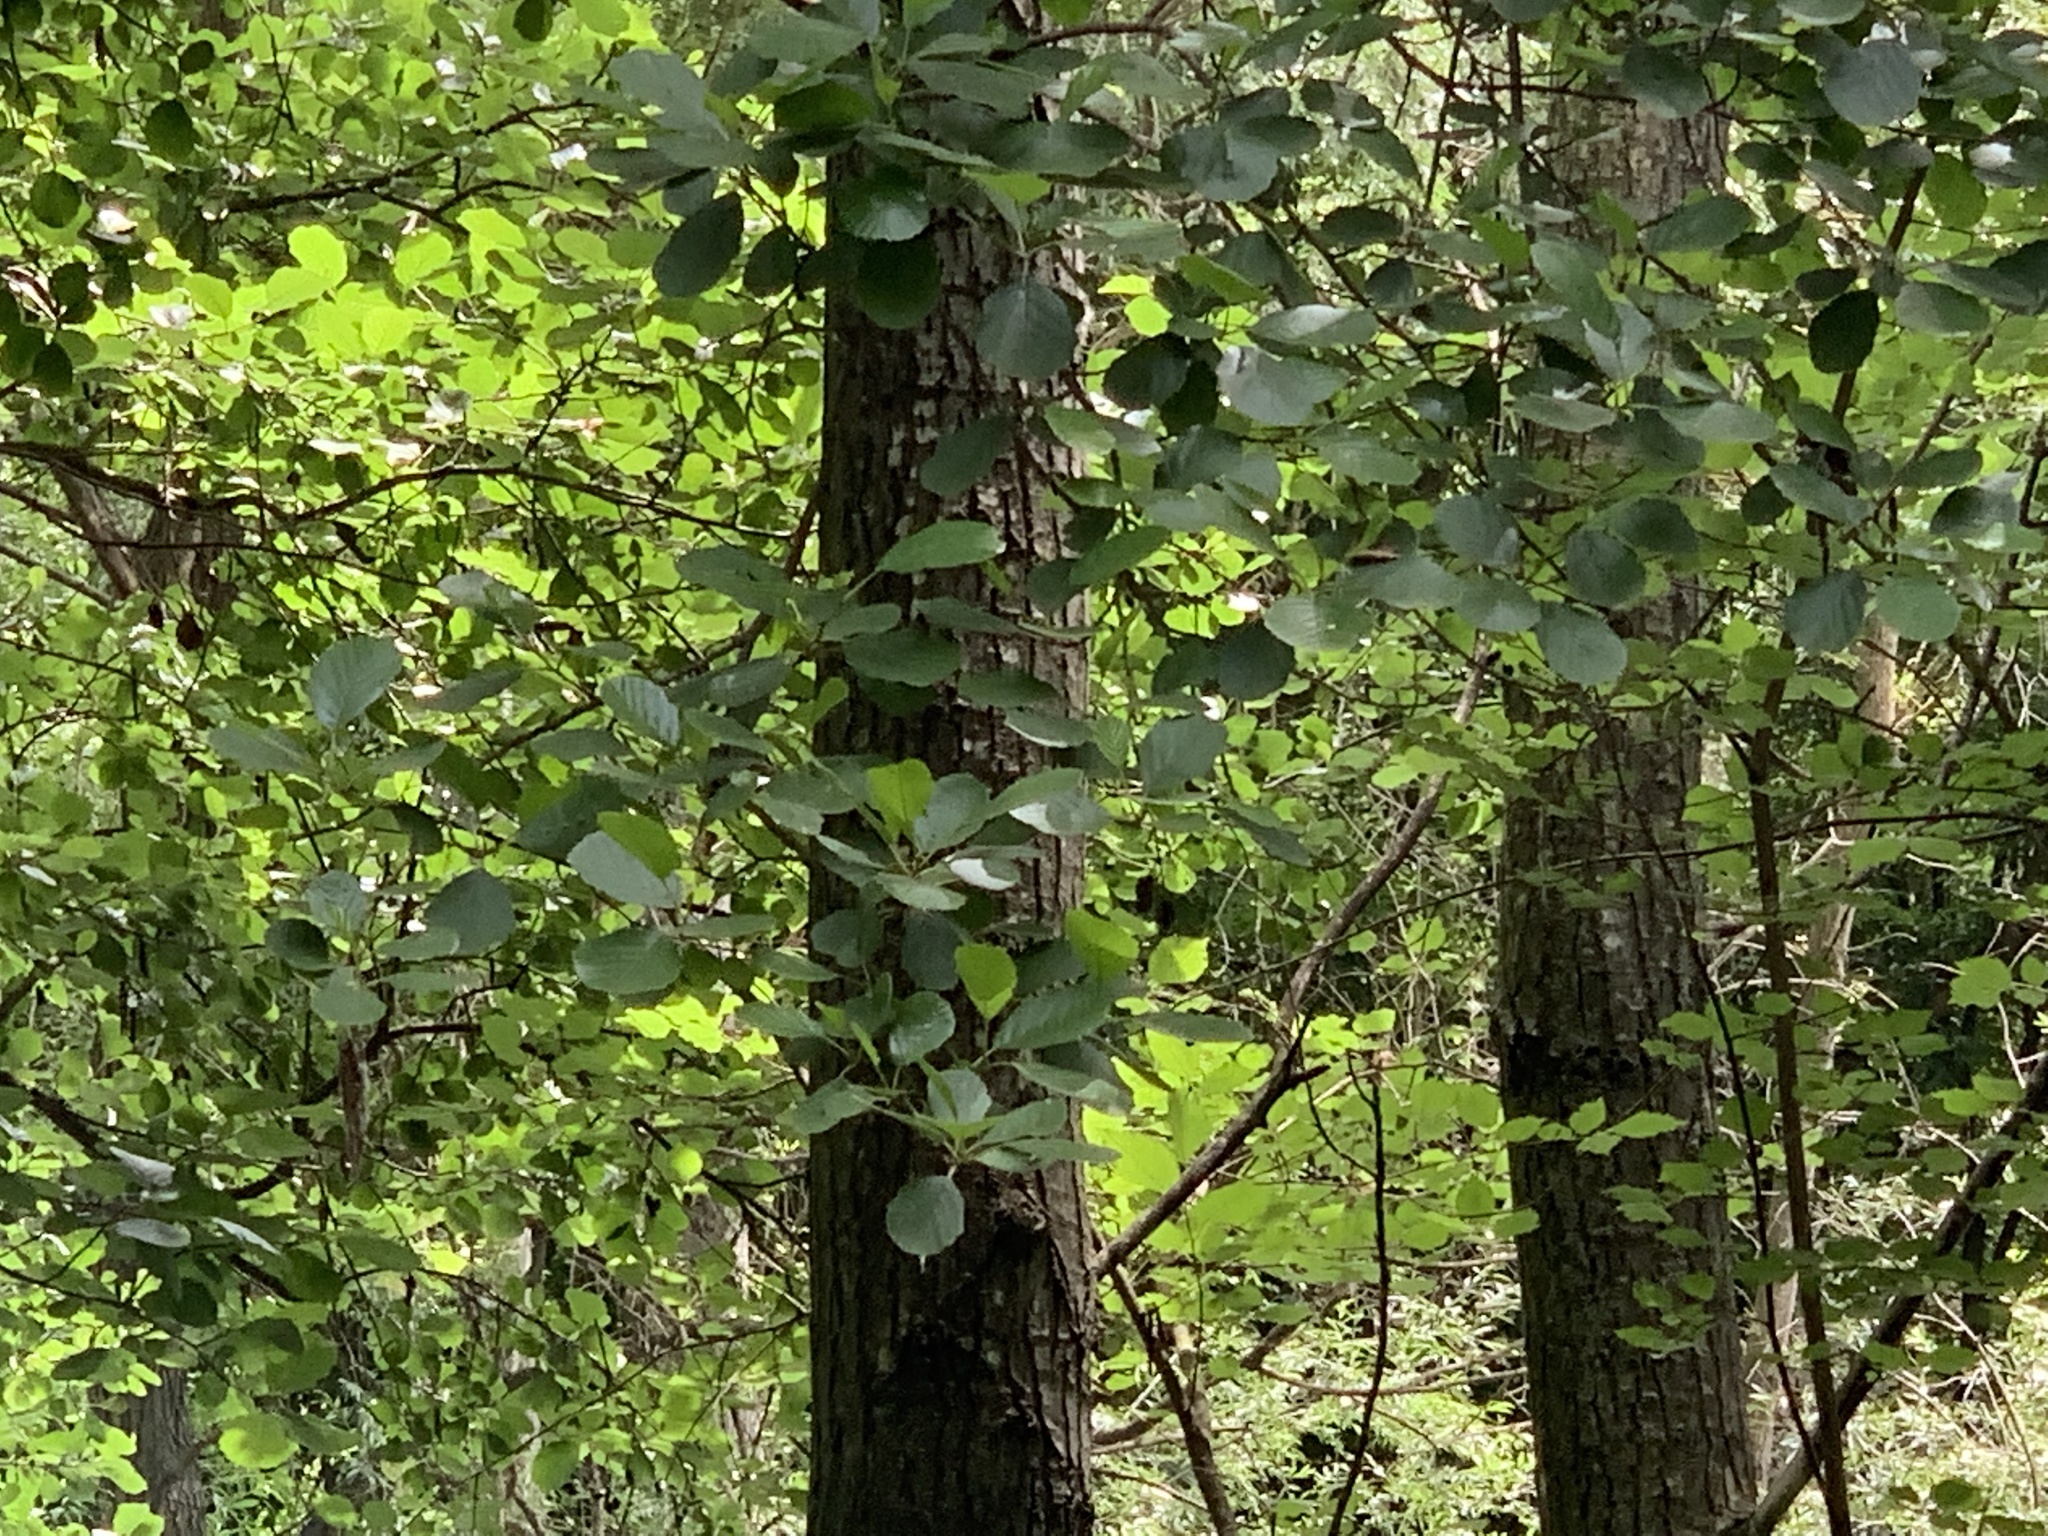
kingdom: Plantae
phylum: Tracheophyta
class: Magnoliopsida
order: Fagales
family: Betulaceae
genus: Alnus
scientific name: Alnus glutinosa
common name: Black alder
